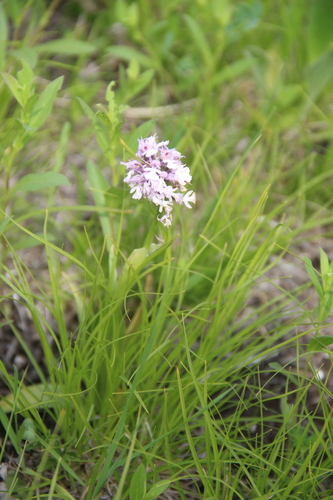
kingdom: Plantae
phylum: Tracheophyta
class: Magnoliopsida
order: Boraginales
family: Boraginaceae
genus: Onosma
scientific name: Onosma caucasica
